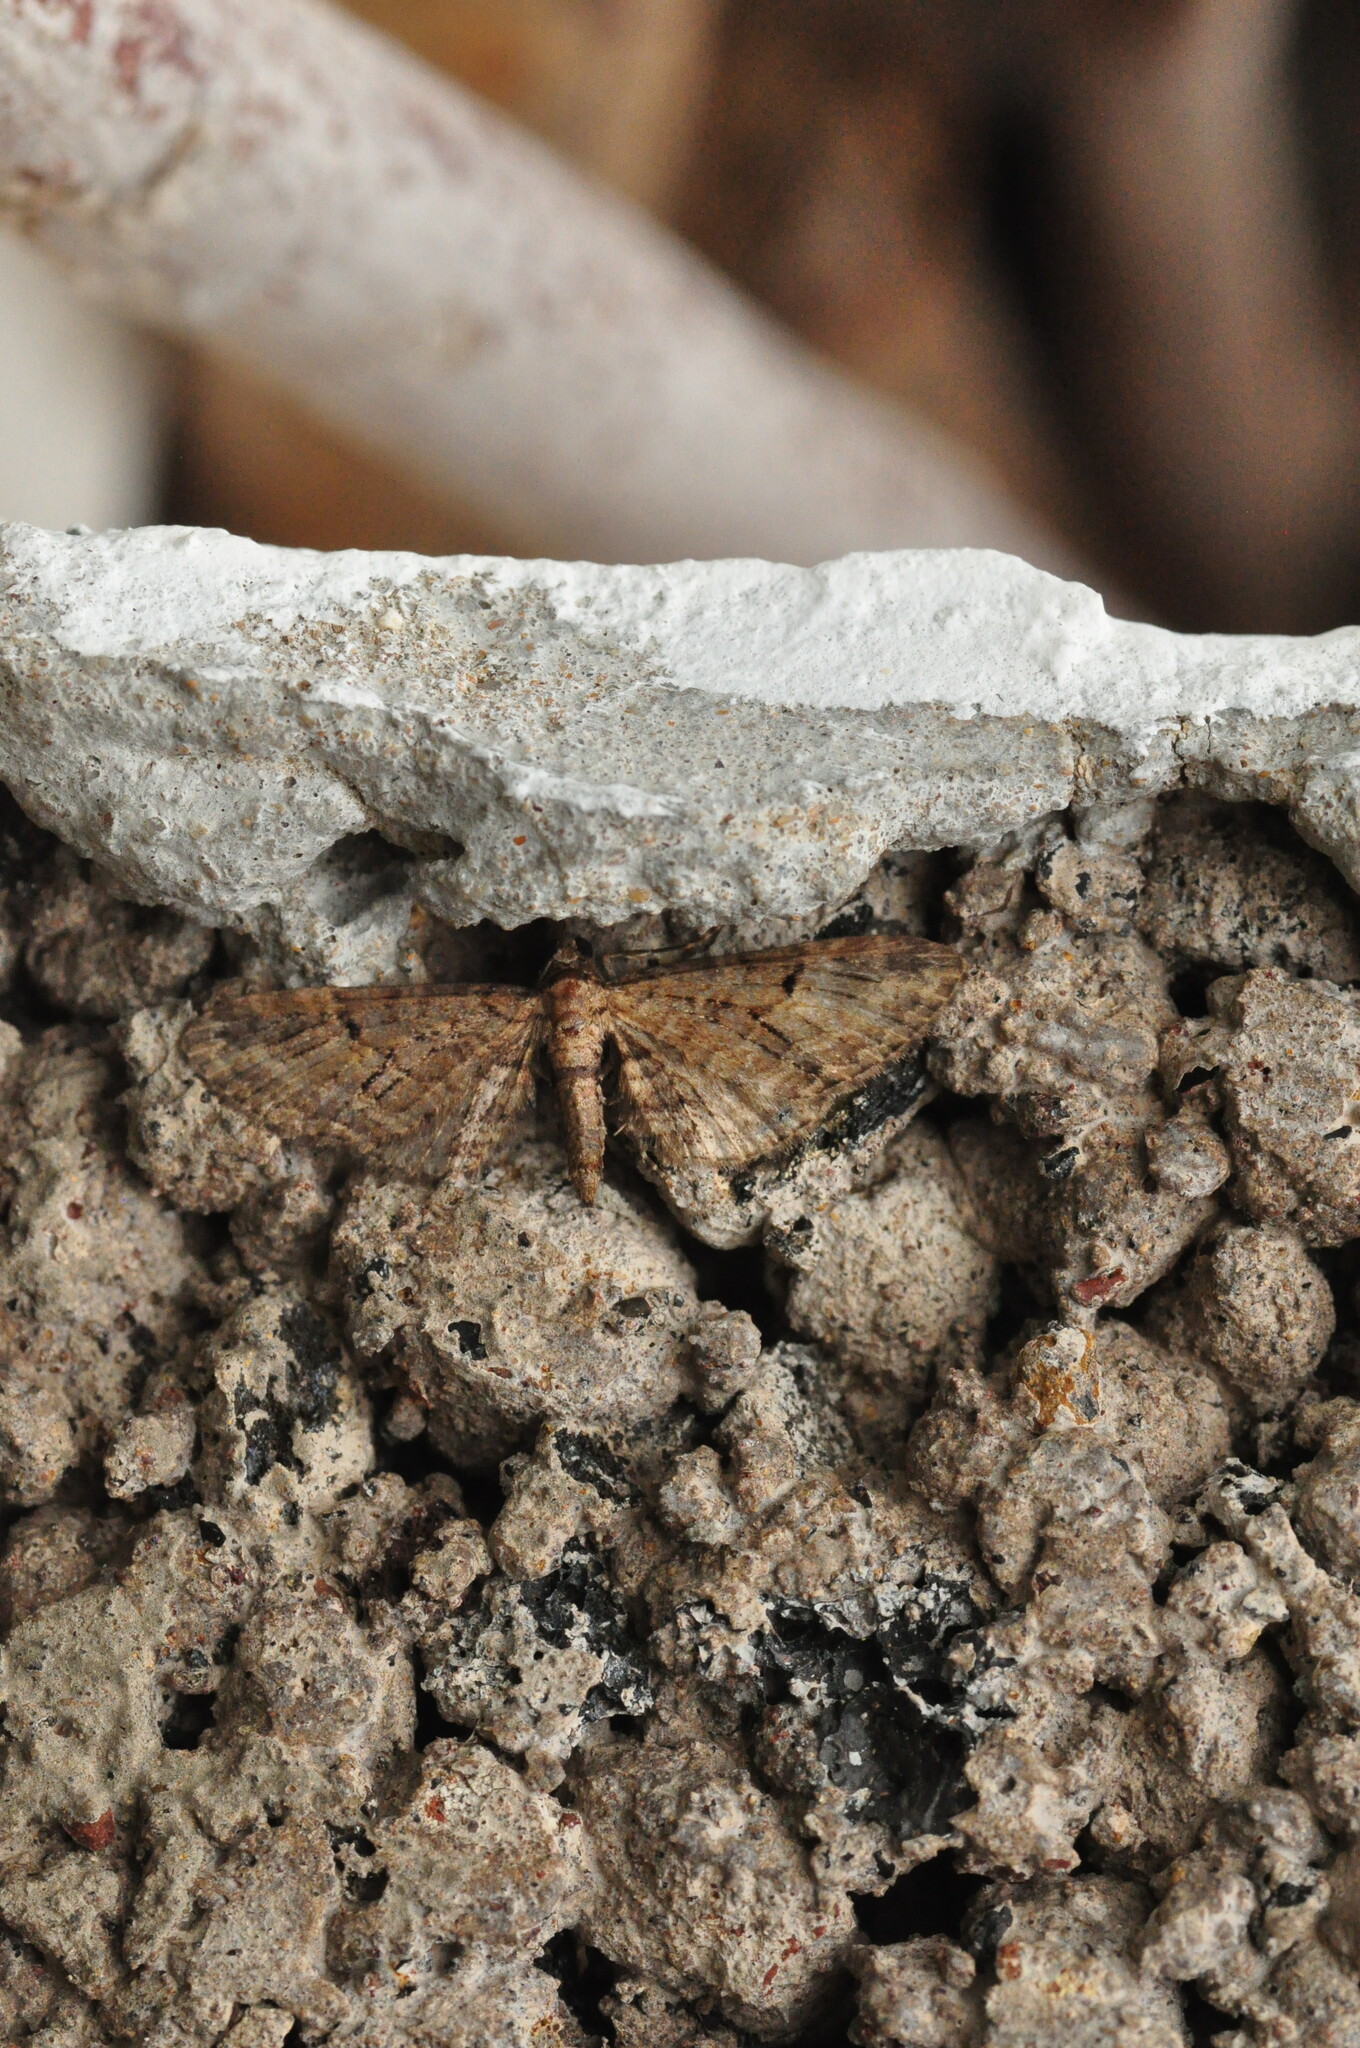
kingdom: Animalia
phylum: Arthropoda
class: Insecta
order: Lepidoptera
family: Geometridae
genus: Eupithecia
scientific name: Eupithecia tenerifensis
